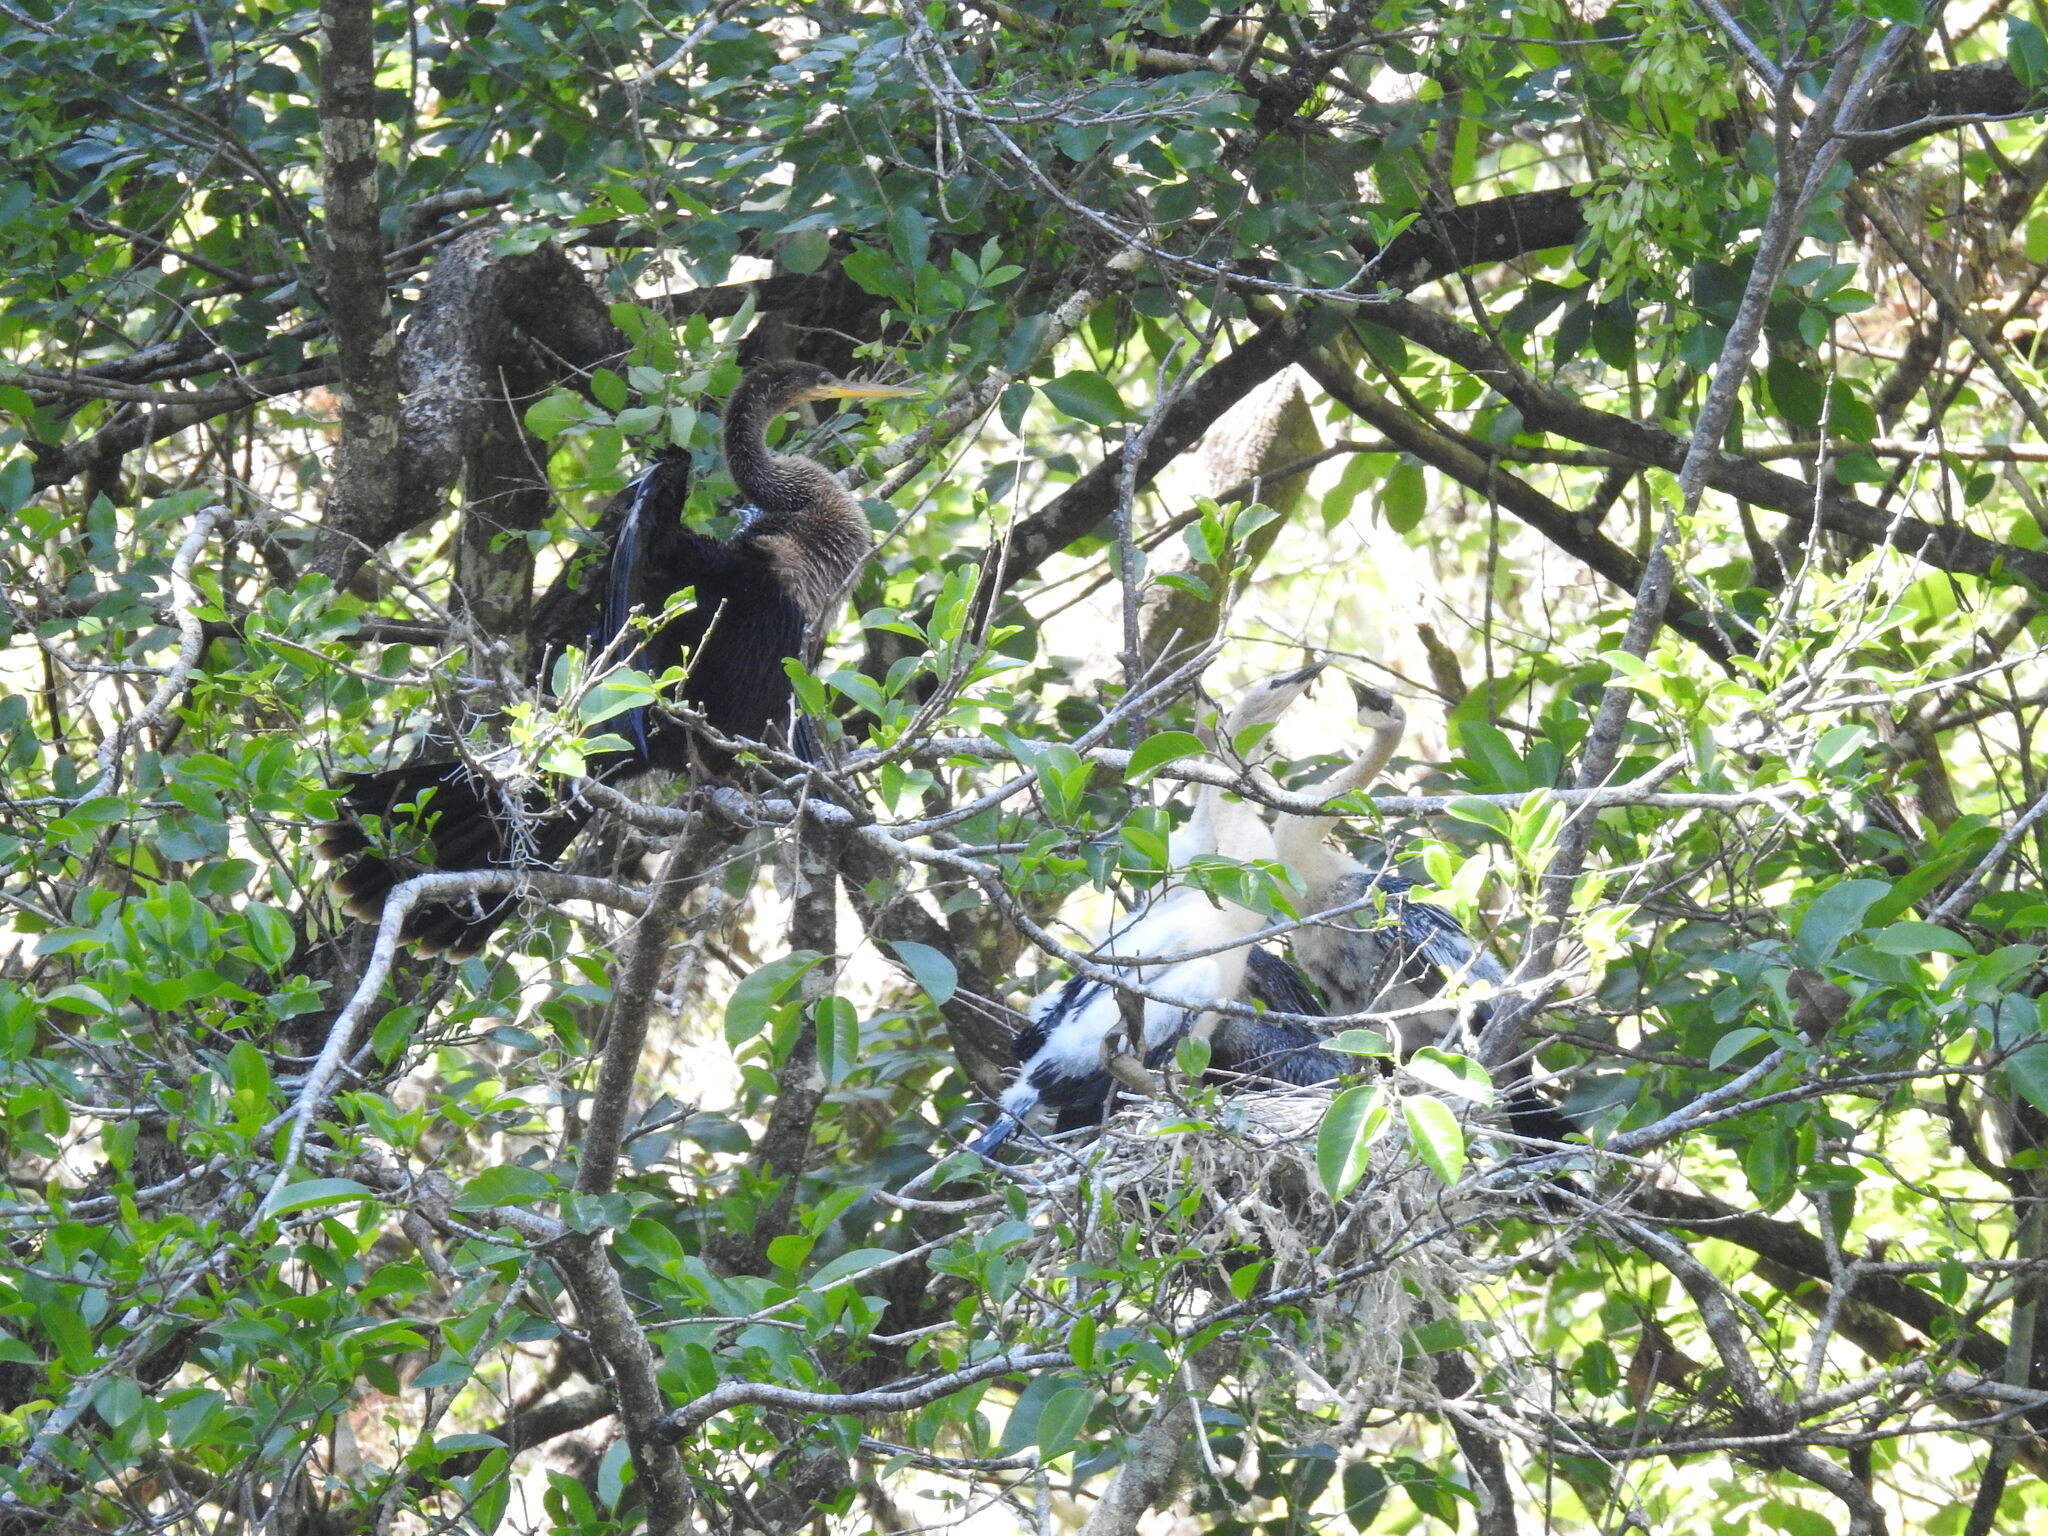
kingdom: Animalia
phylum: Chordata
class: Aves
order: Suliformes
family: Anhingidae
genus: Anhinga
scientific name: Anhinga anhinga
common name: Anhinga
